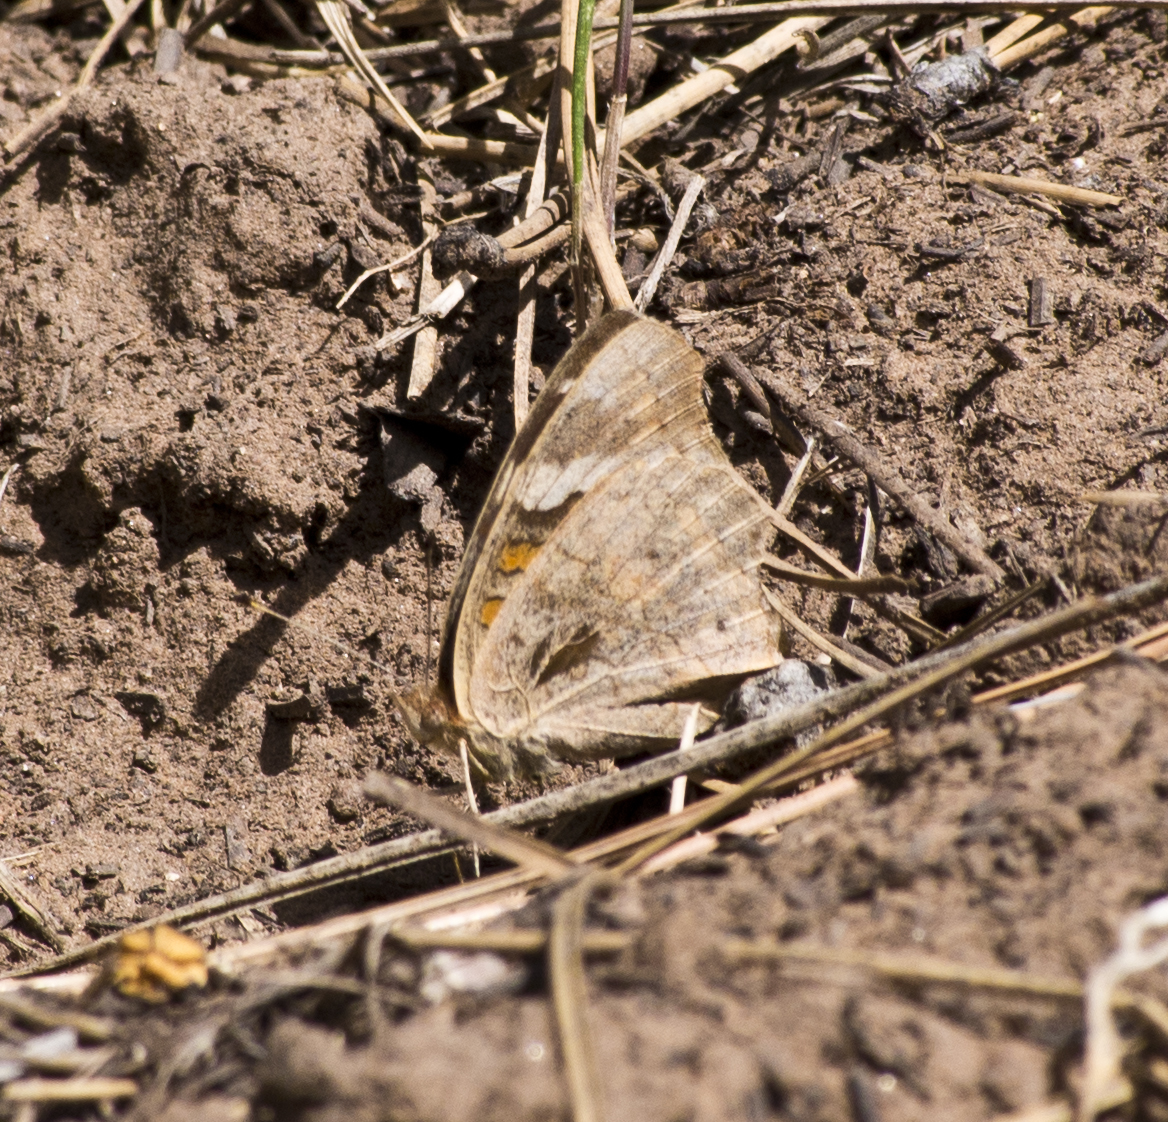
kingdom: Animalia
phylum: Arthropoda
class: Insecta
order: Lepidoptera
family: Nymphalidae
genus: Junonia
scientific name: Junonia grisea
